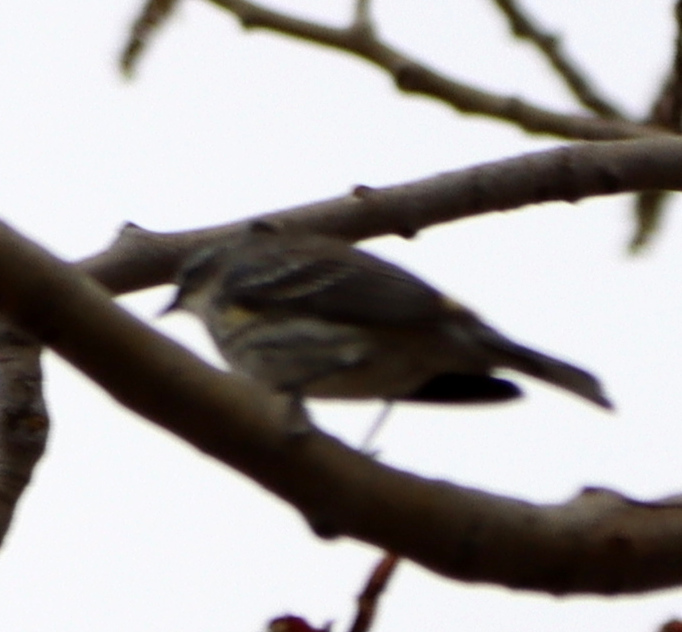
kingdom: Animalia
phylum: Chordata
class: Aves
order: Passeriformes
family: Parulidae
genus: Setophaga
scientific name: Setophaga coronata
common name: Myrtle warbler
